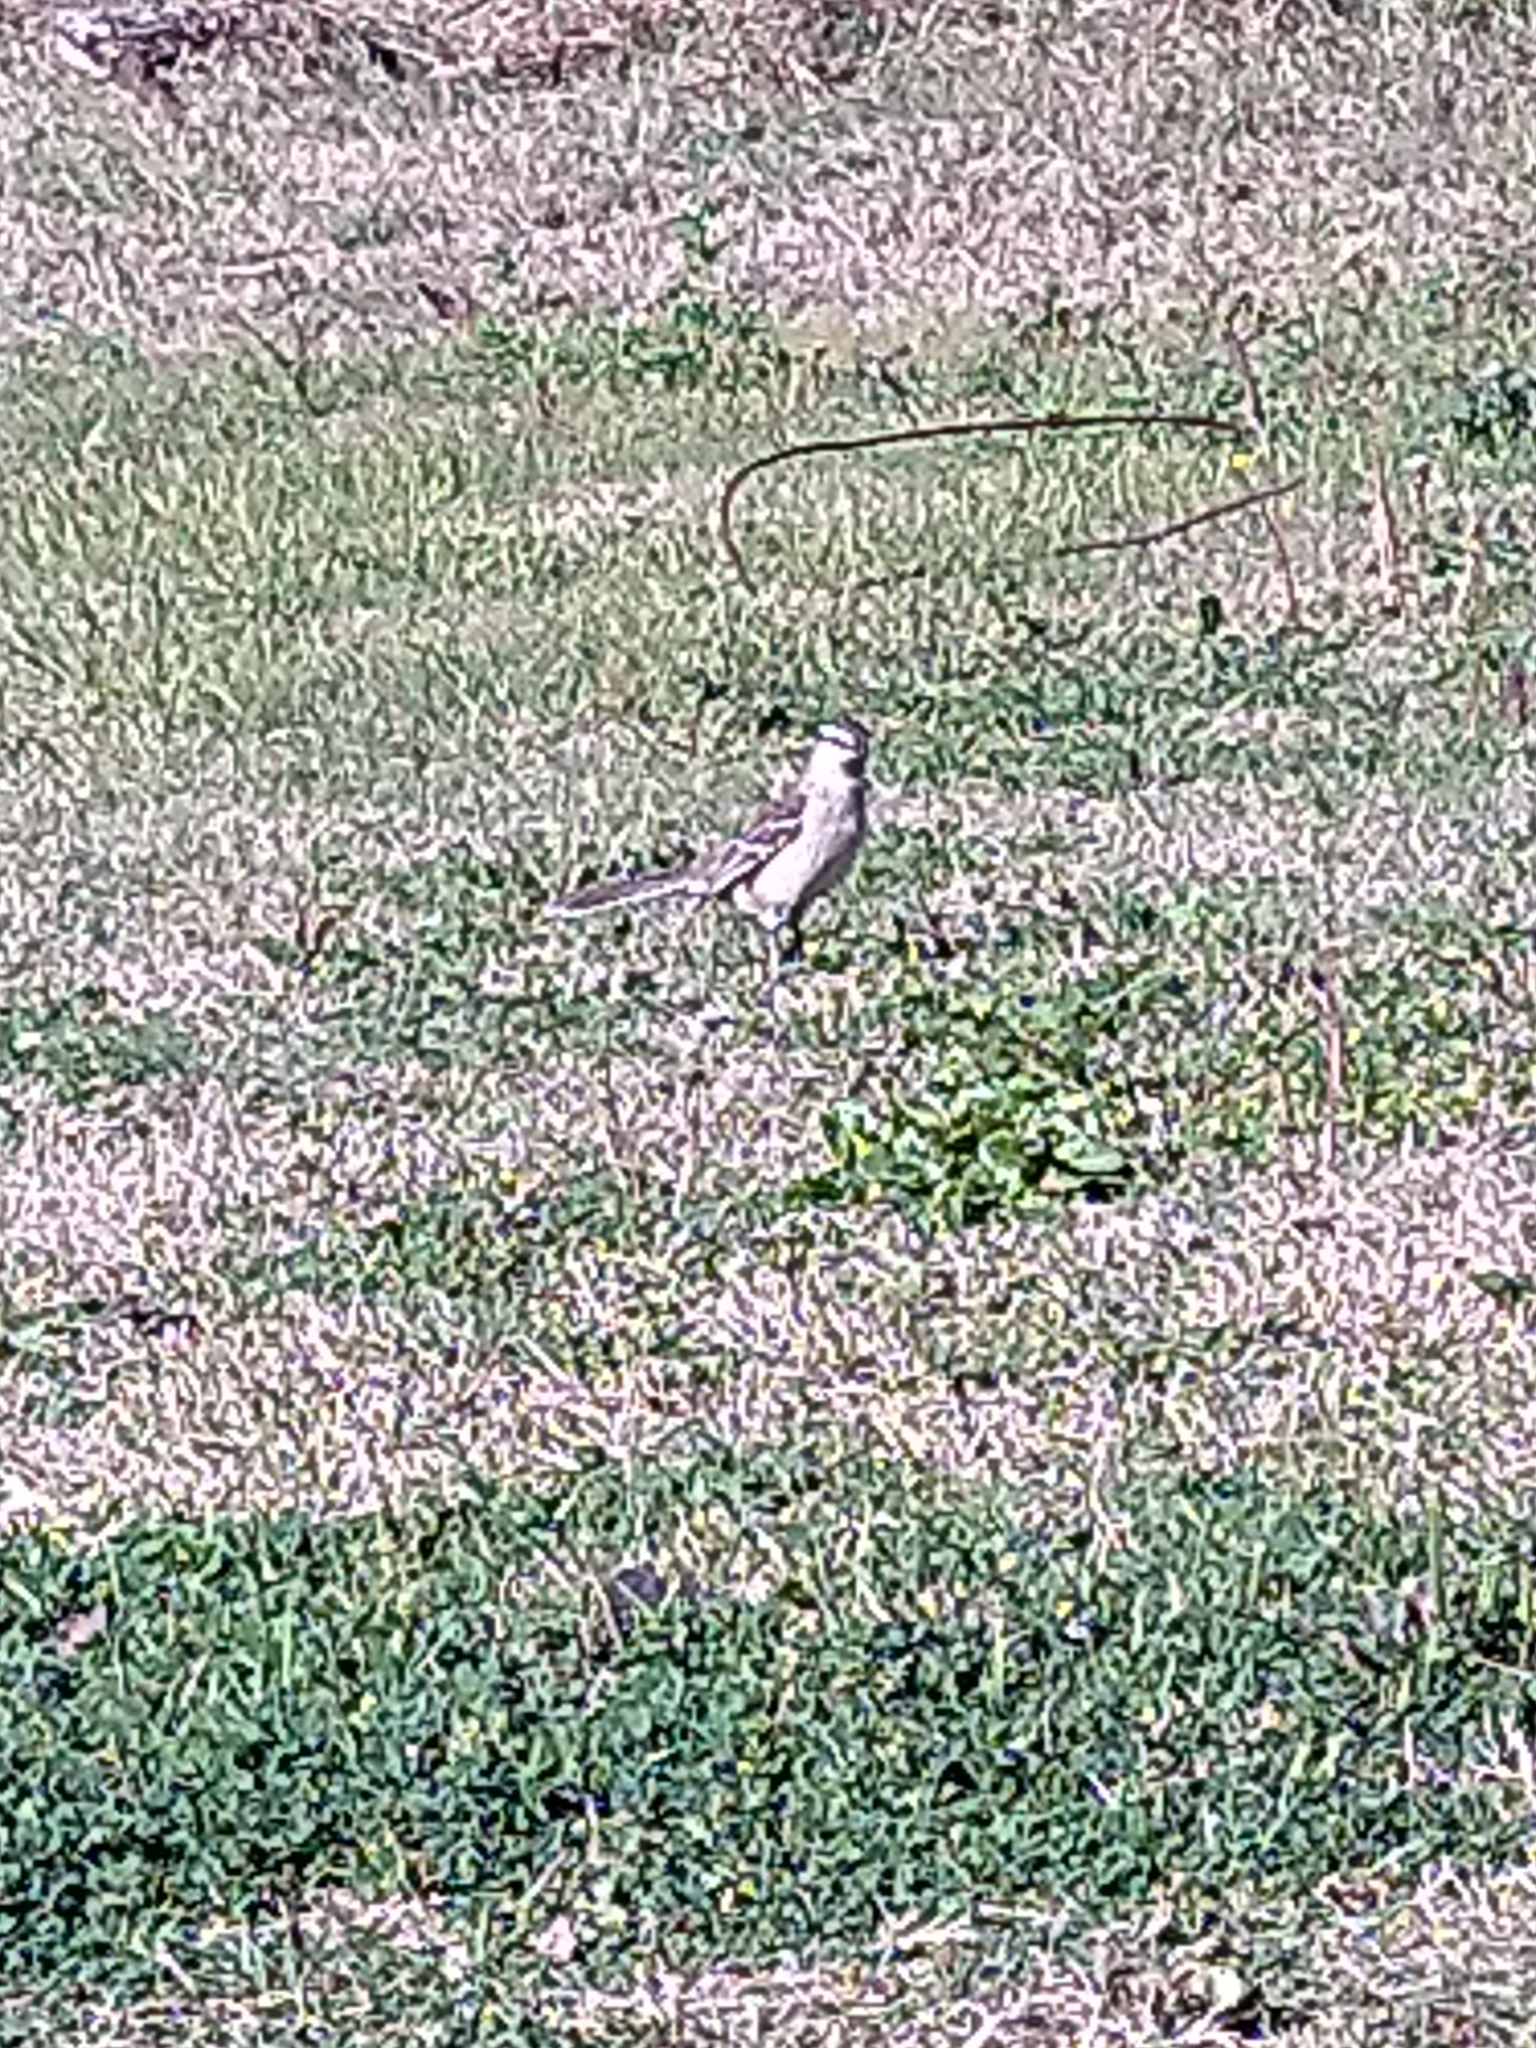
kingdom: Animalia
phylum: Chordata
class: Aves
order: Passeriformes
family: Mimidae
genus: Mimus
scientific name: Mimus saturninus
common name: Chalk-browed mockingbird
